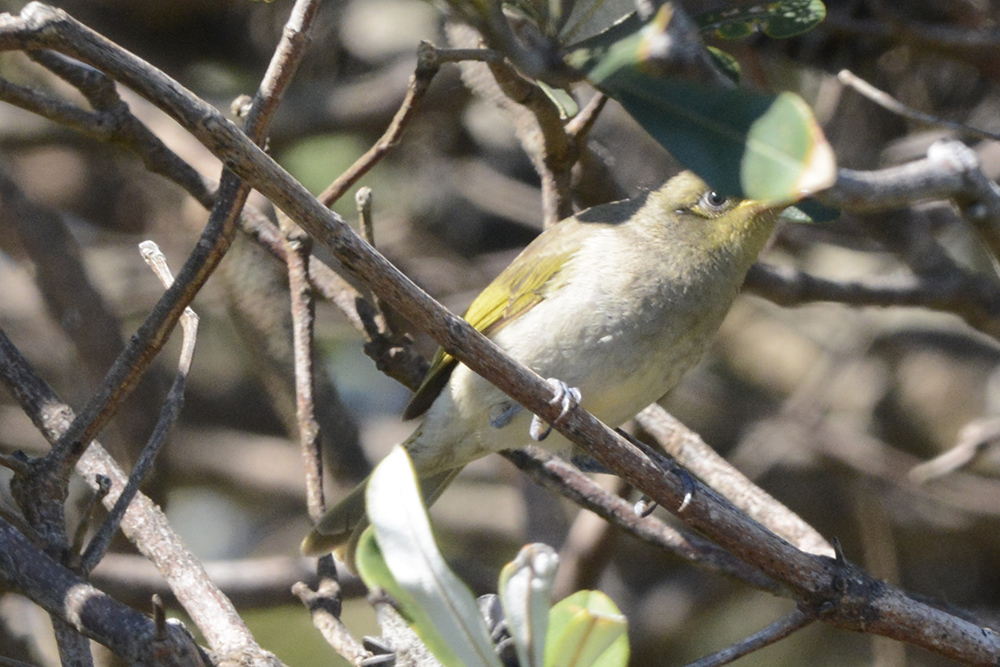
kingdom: Animalia
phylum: Chordata
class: Aves
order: Passeriformes
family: Meliphagidae
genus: Lichmera
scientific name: Lichmera indistincta
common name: Brown honeyeater
